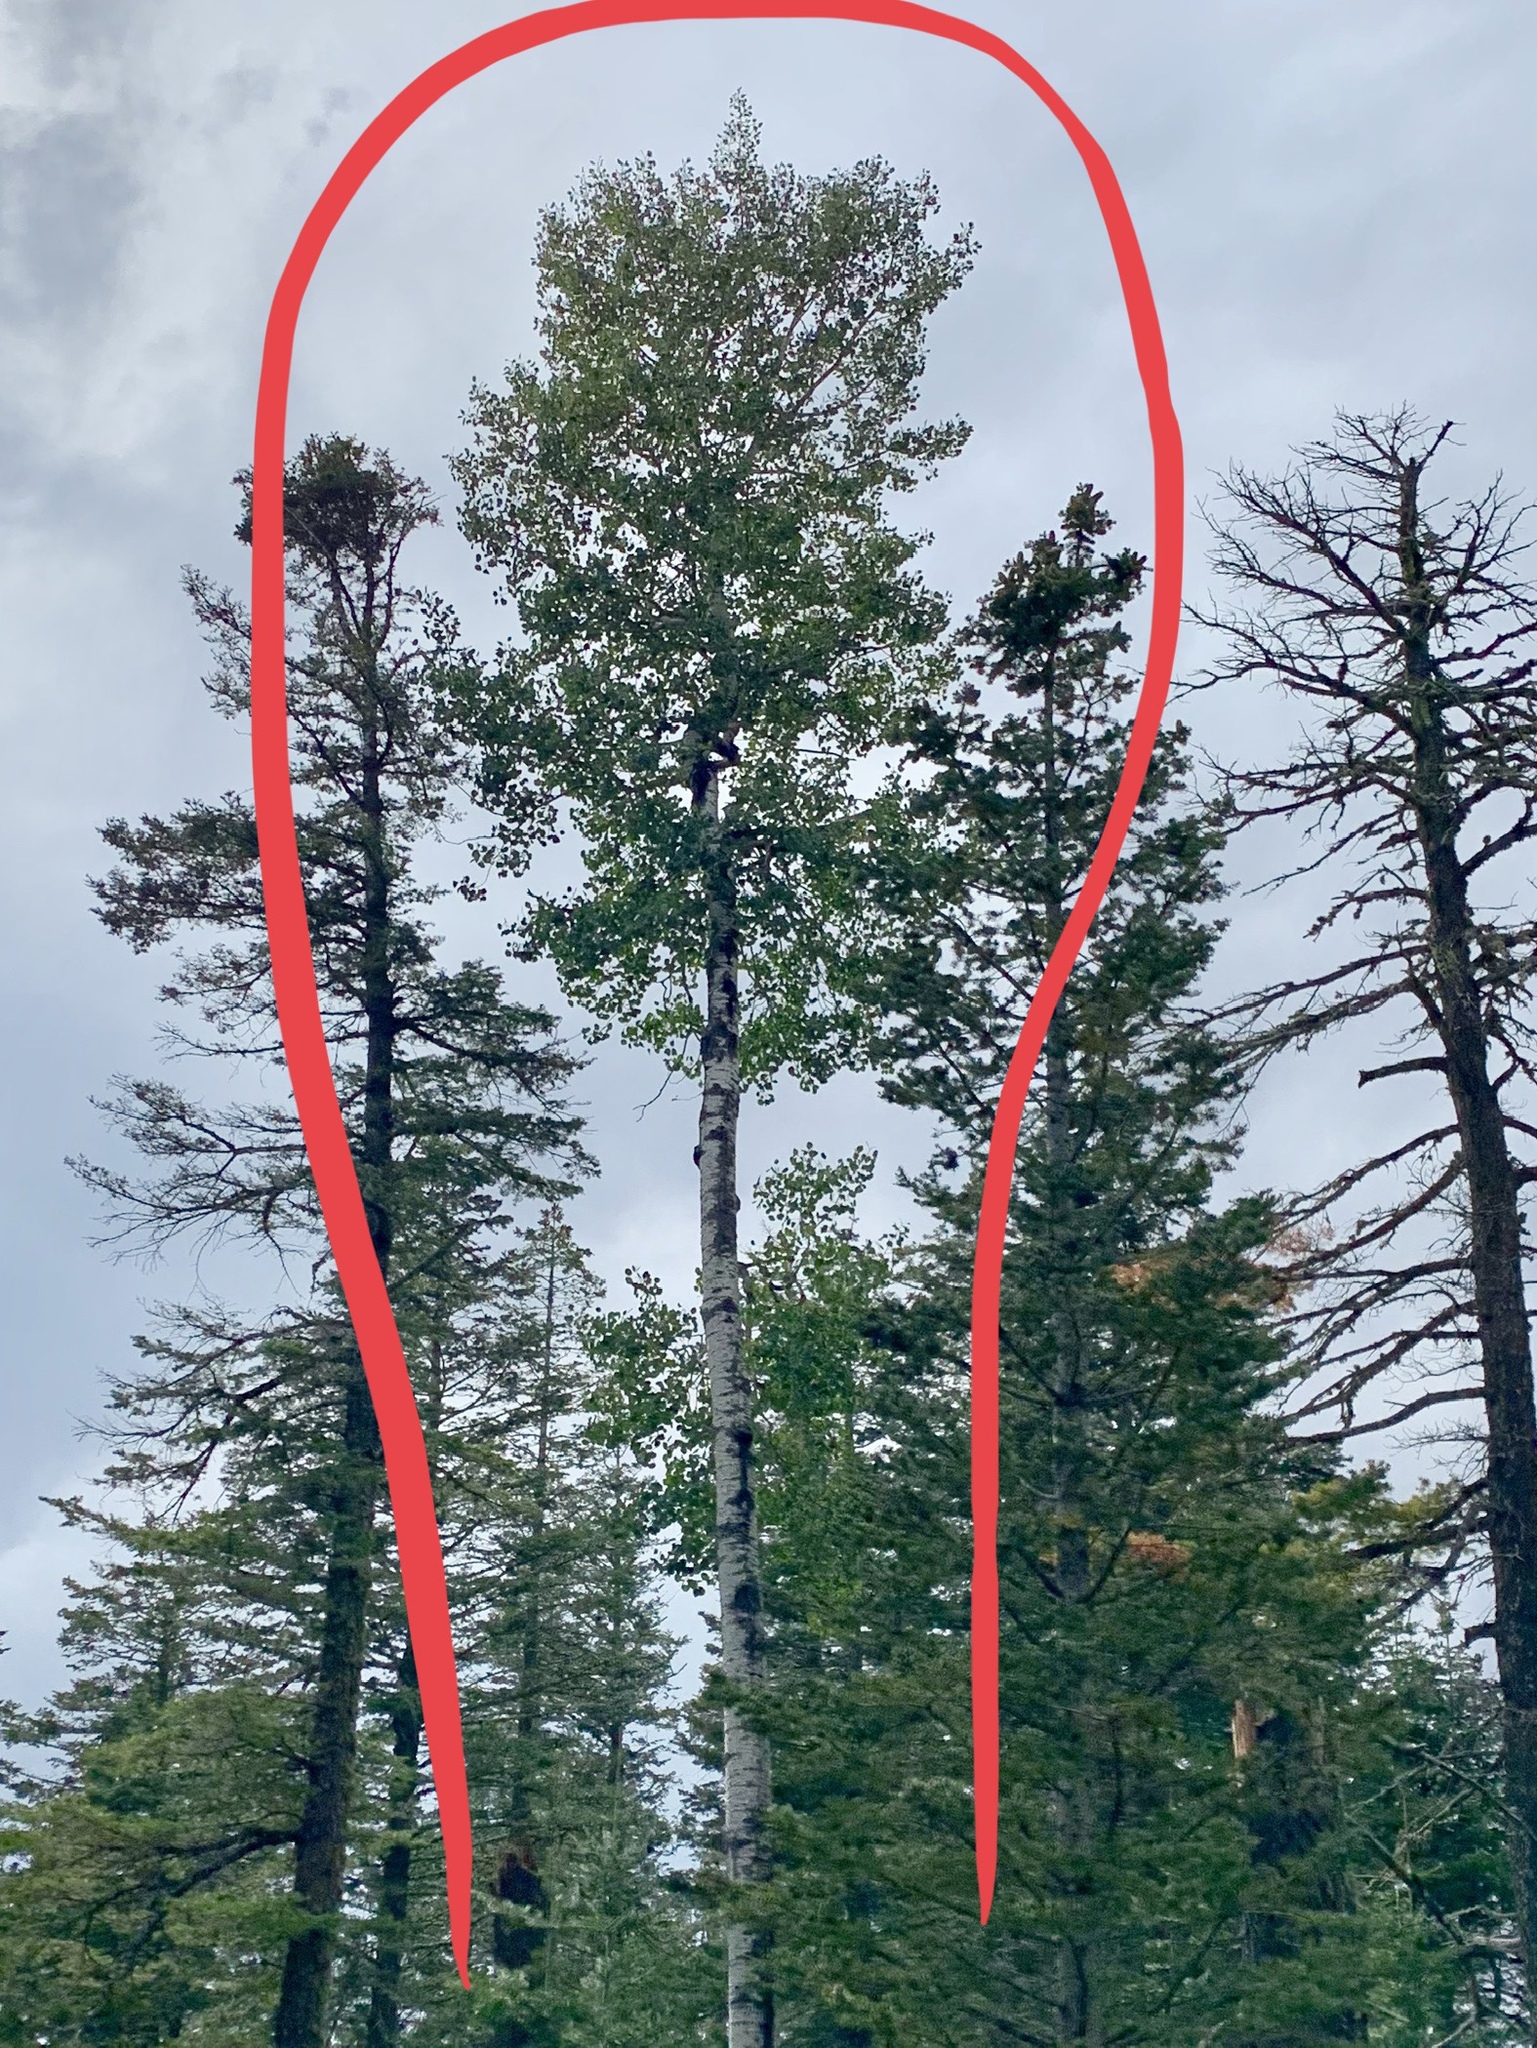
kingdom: Plantae
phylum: Tracheophyta
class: Magnoliopsida
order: Malpighiales
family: Salicaceae
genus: Populus
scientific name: Populus tremuloides
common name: Quaking aspen
